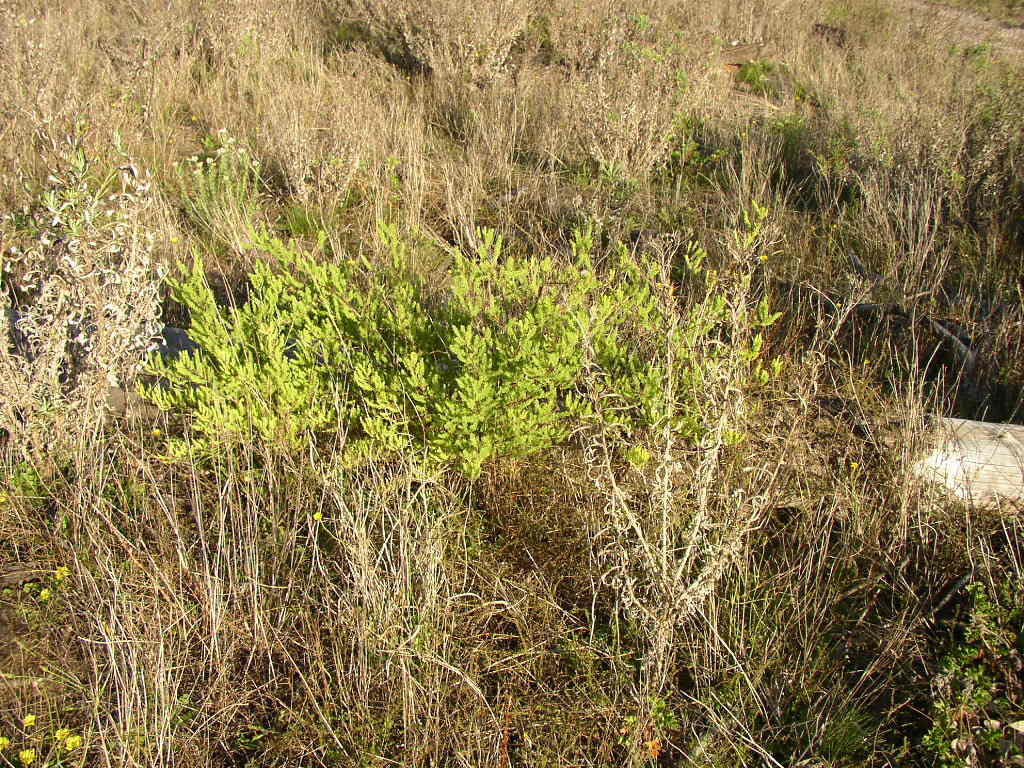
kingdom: Plantae
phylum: Tracheophyta
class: Liliopsida
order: Asparagales
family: Asparagaceae
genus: Asparagus
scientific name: Asparagus rubicundus
